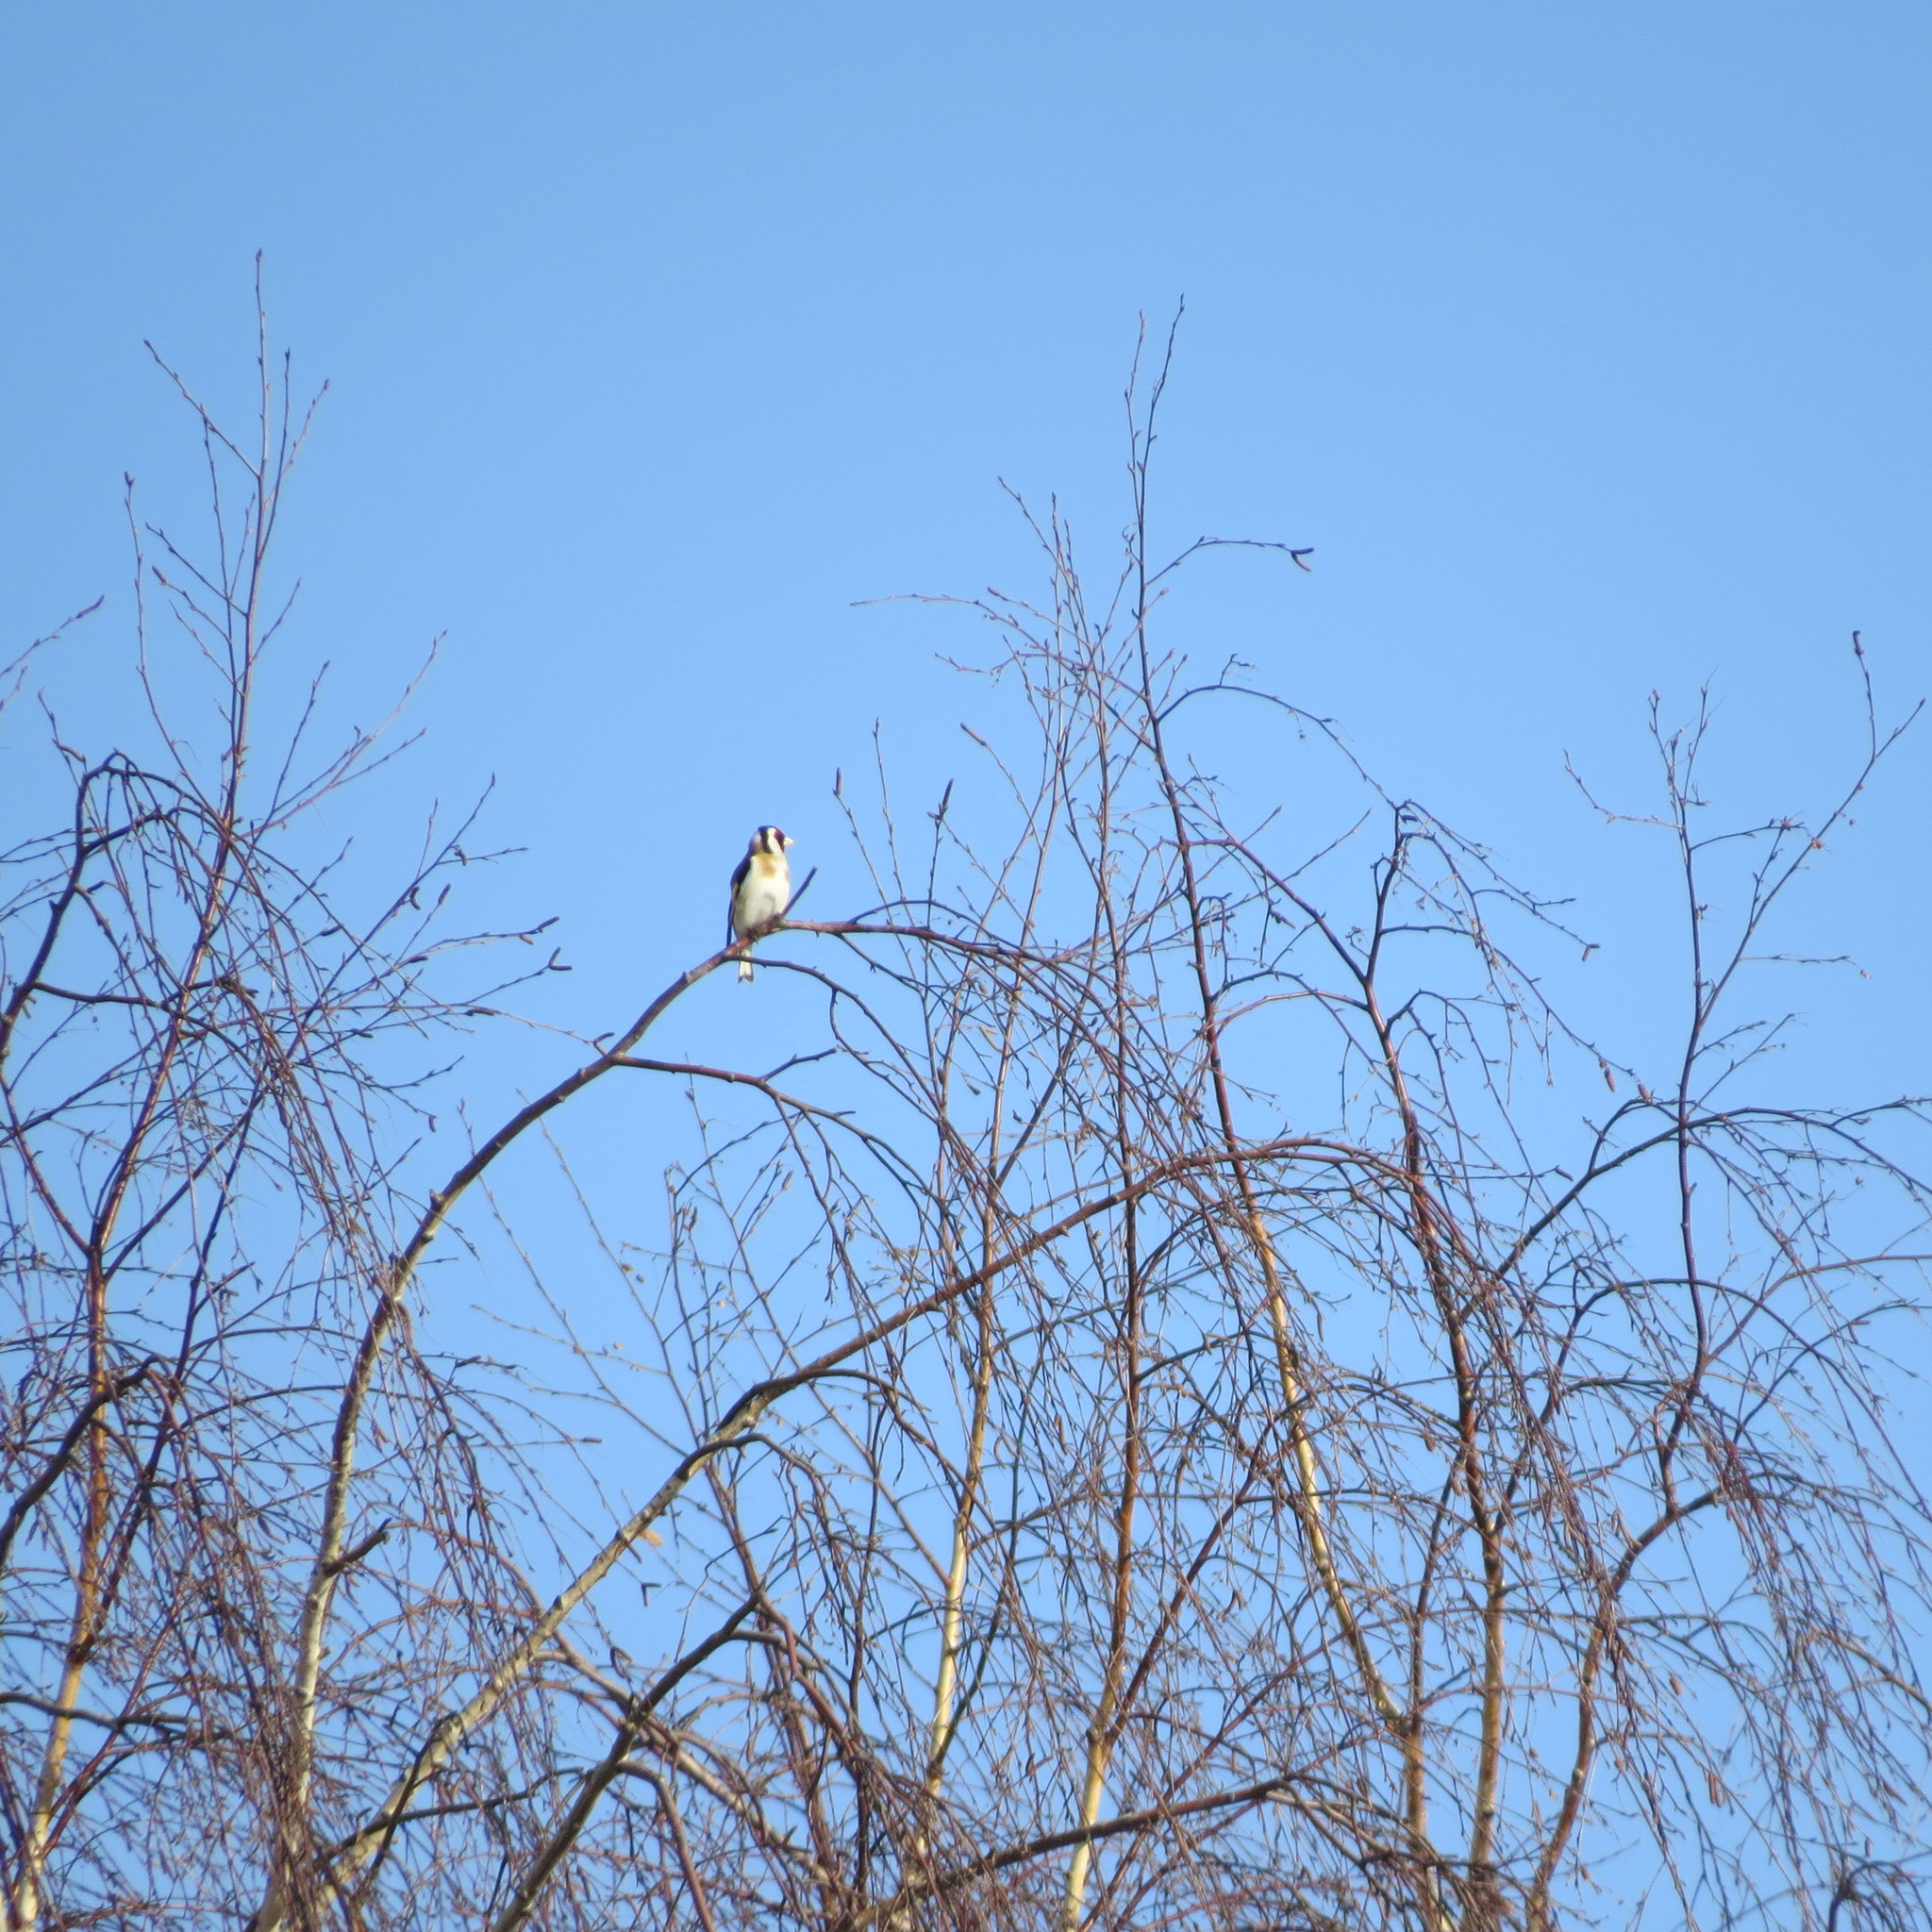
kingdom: Animalia
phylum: Chordata
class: Aves
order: Passeriformes
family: Fringillidae
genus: Carduelis
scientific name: Carduelis carduelis
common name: European goldfinch
